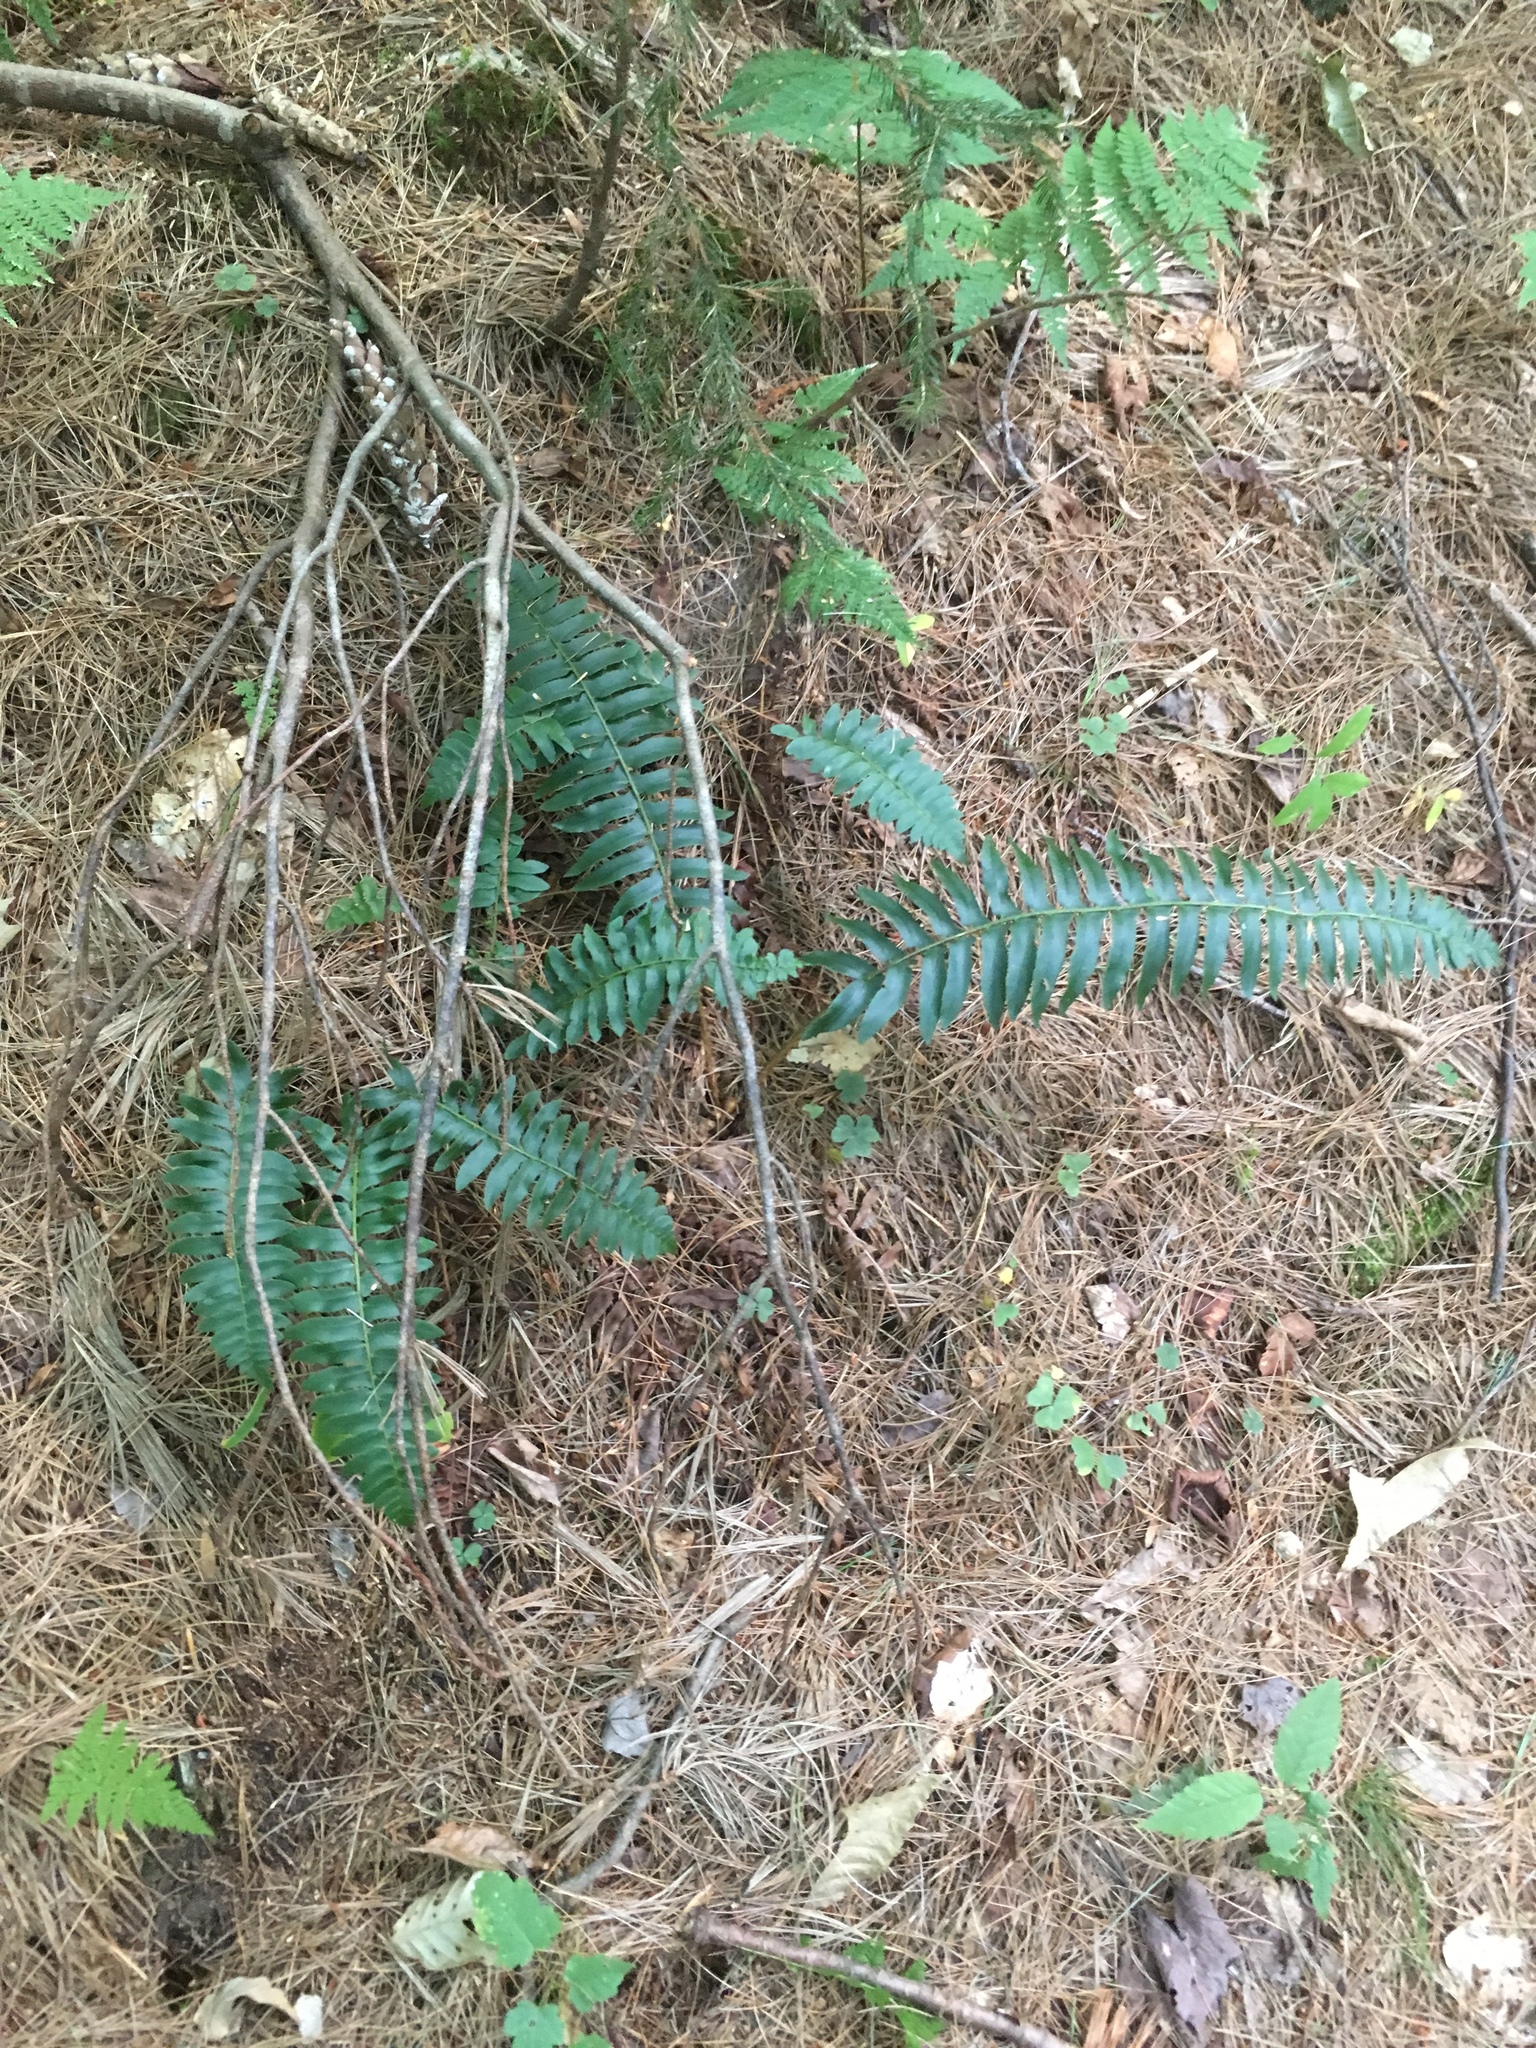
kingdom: Plantae
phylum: Tracheophyta
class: Polypodiopsida
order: Polypodiales
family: Dryopteridaceae
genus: Polystichum
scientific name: Polystichum acrostichoides
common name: Christmas fern
